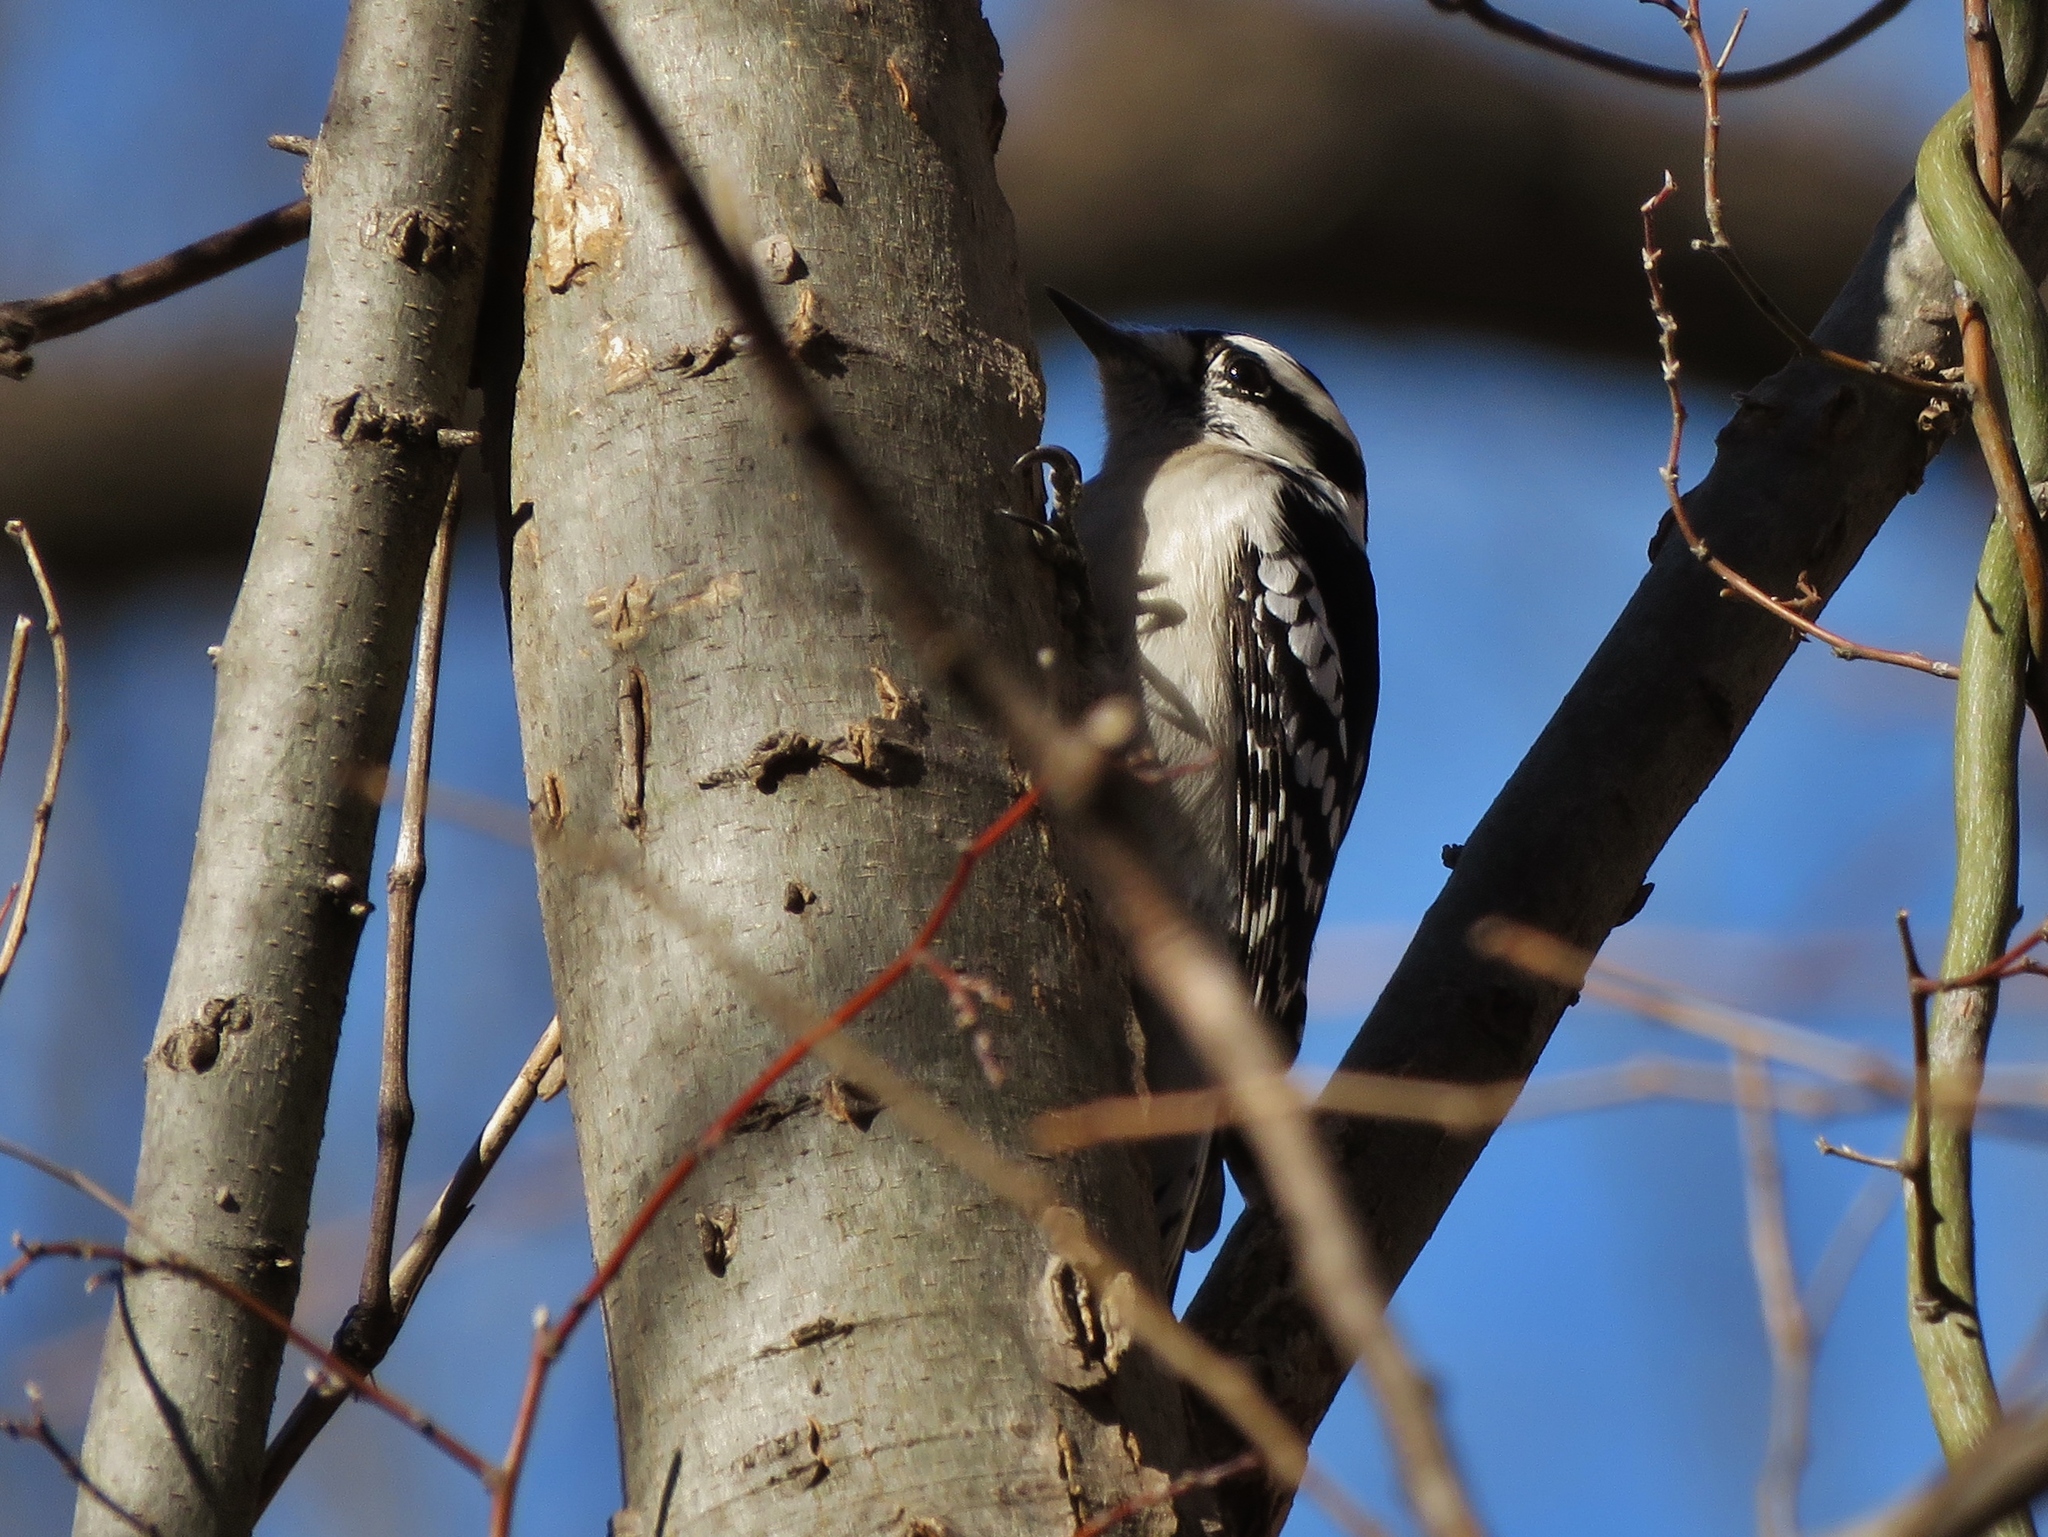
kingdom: Animalia
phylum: Chordata
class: Aves
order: Piciformes
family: Picidae
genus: Dryobates
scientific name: Dryobates pubescens
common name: Downy woodpecker
